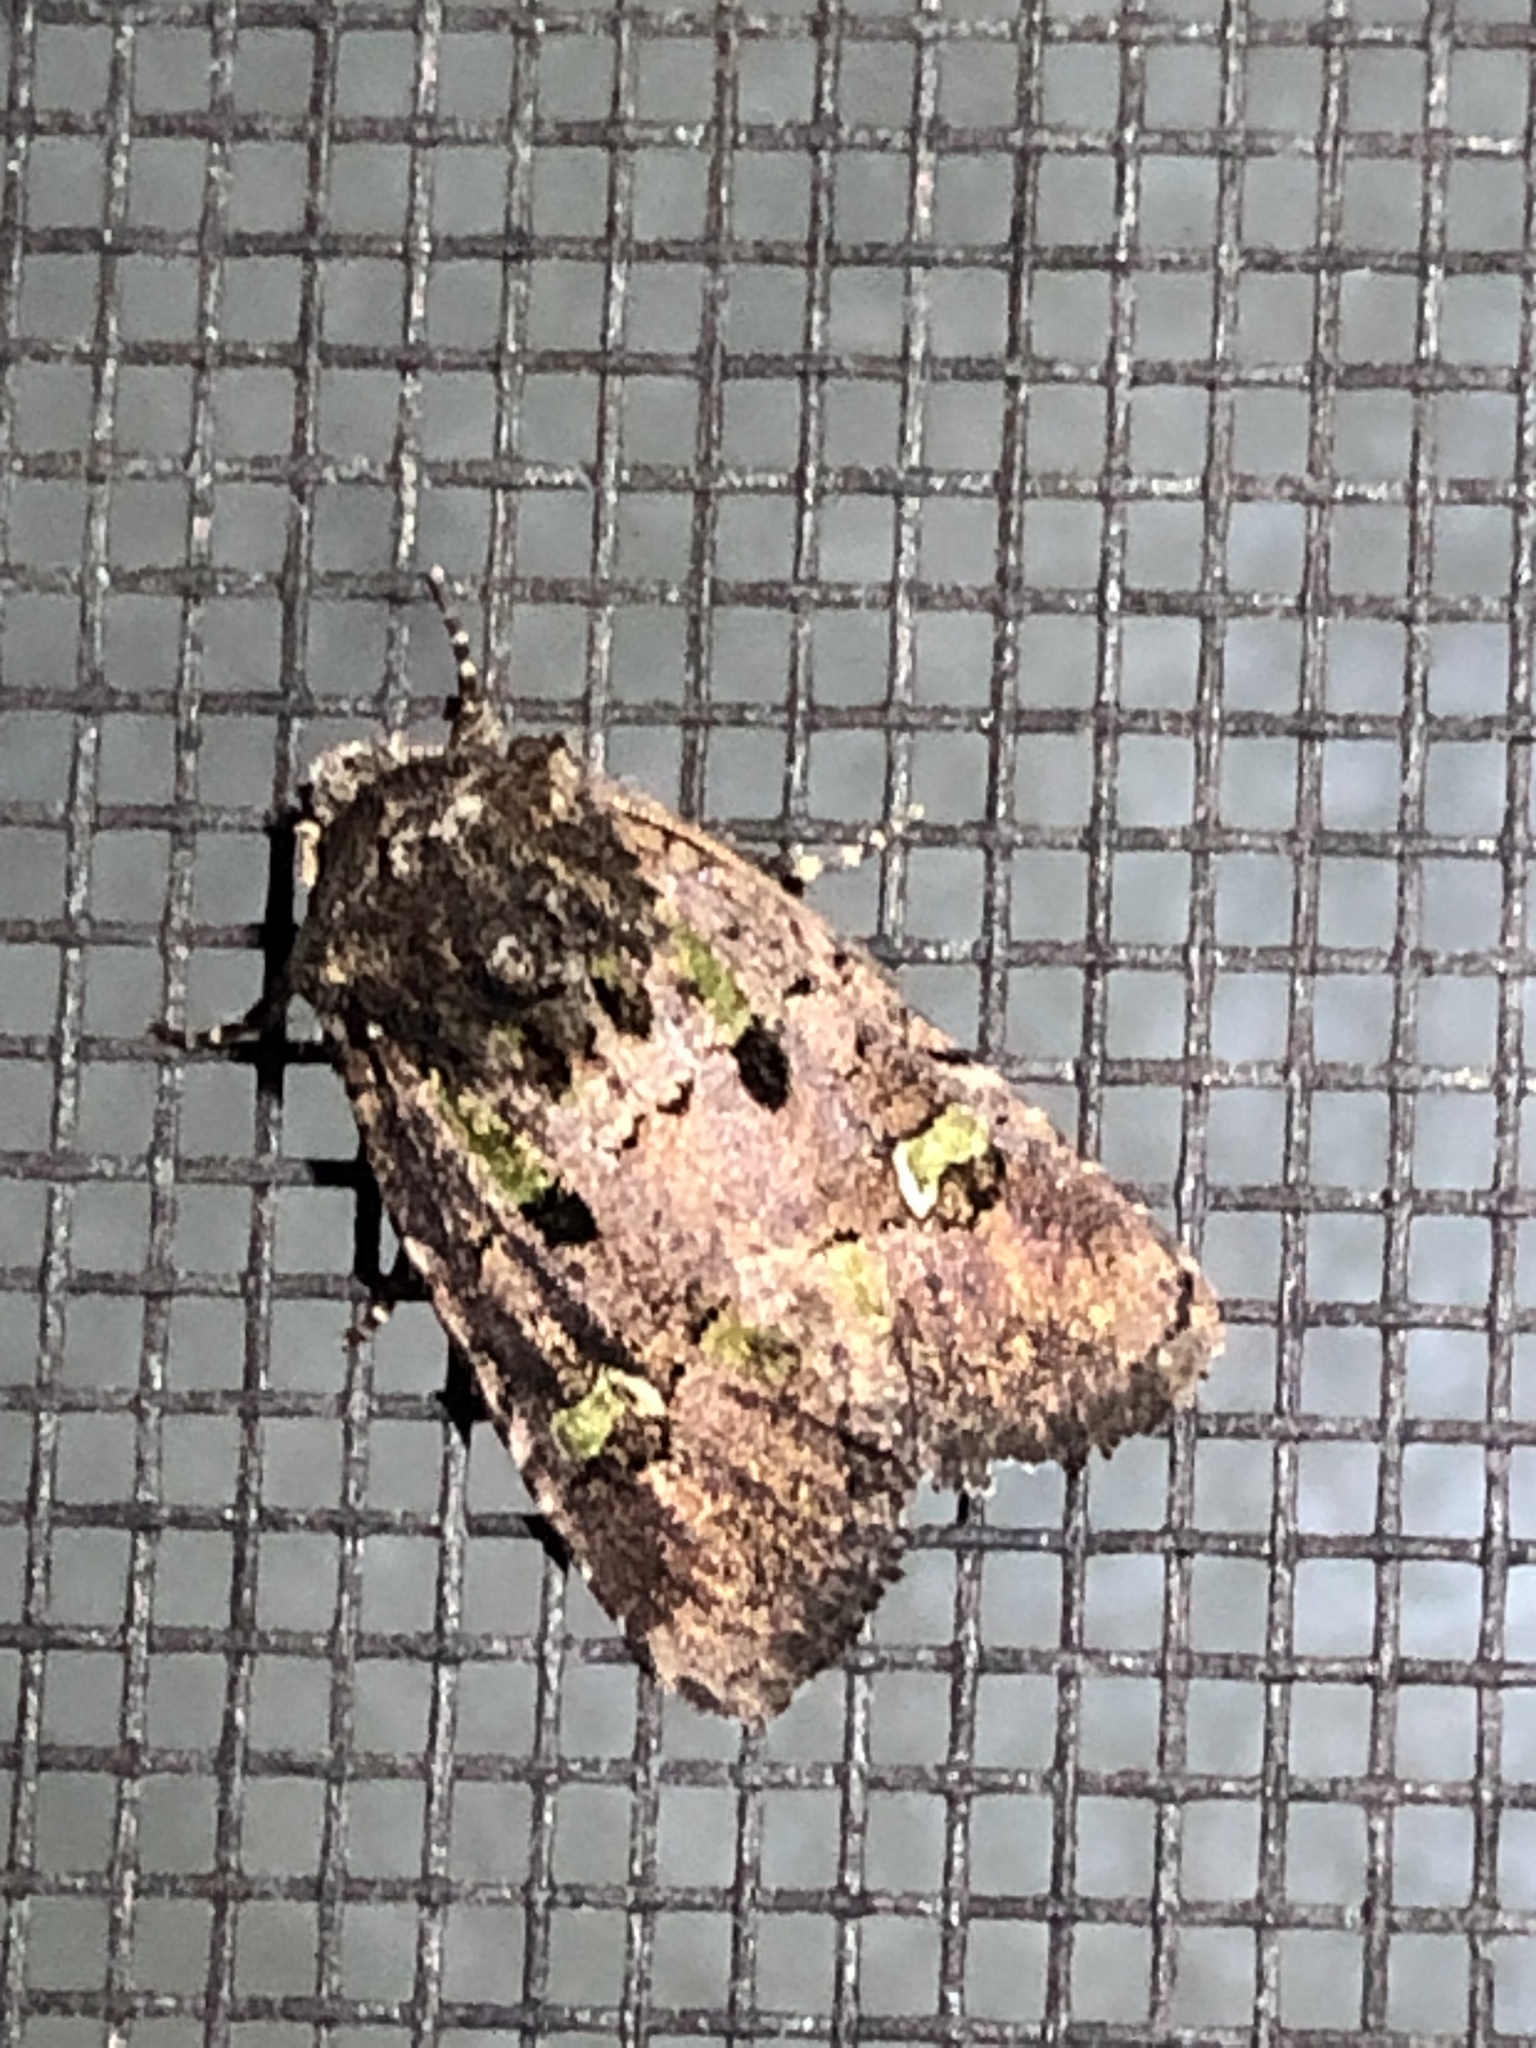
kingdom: Animalia
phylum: Arthropoda
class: Insecta
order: Lepidoptera
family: Noctuidae
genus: Lacinipolia
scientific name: Lacinipolia renigera
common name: Kidney-spotted minor
